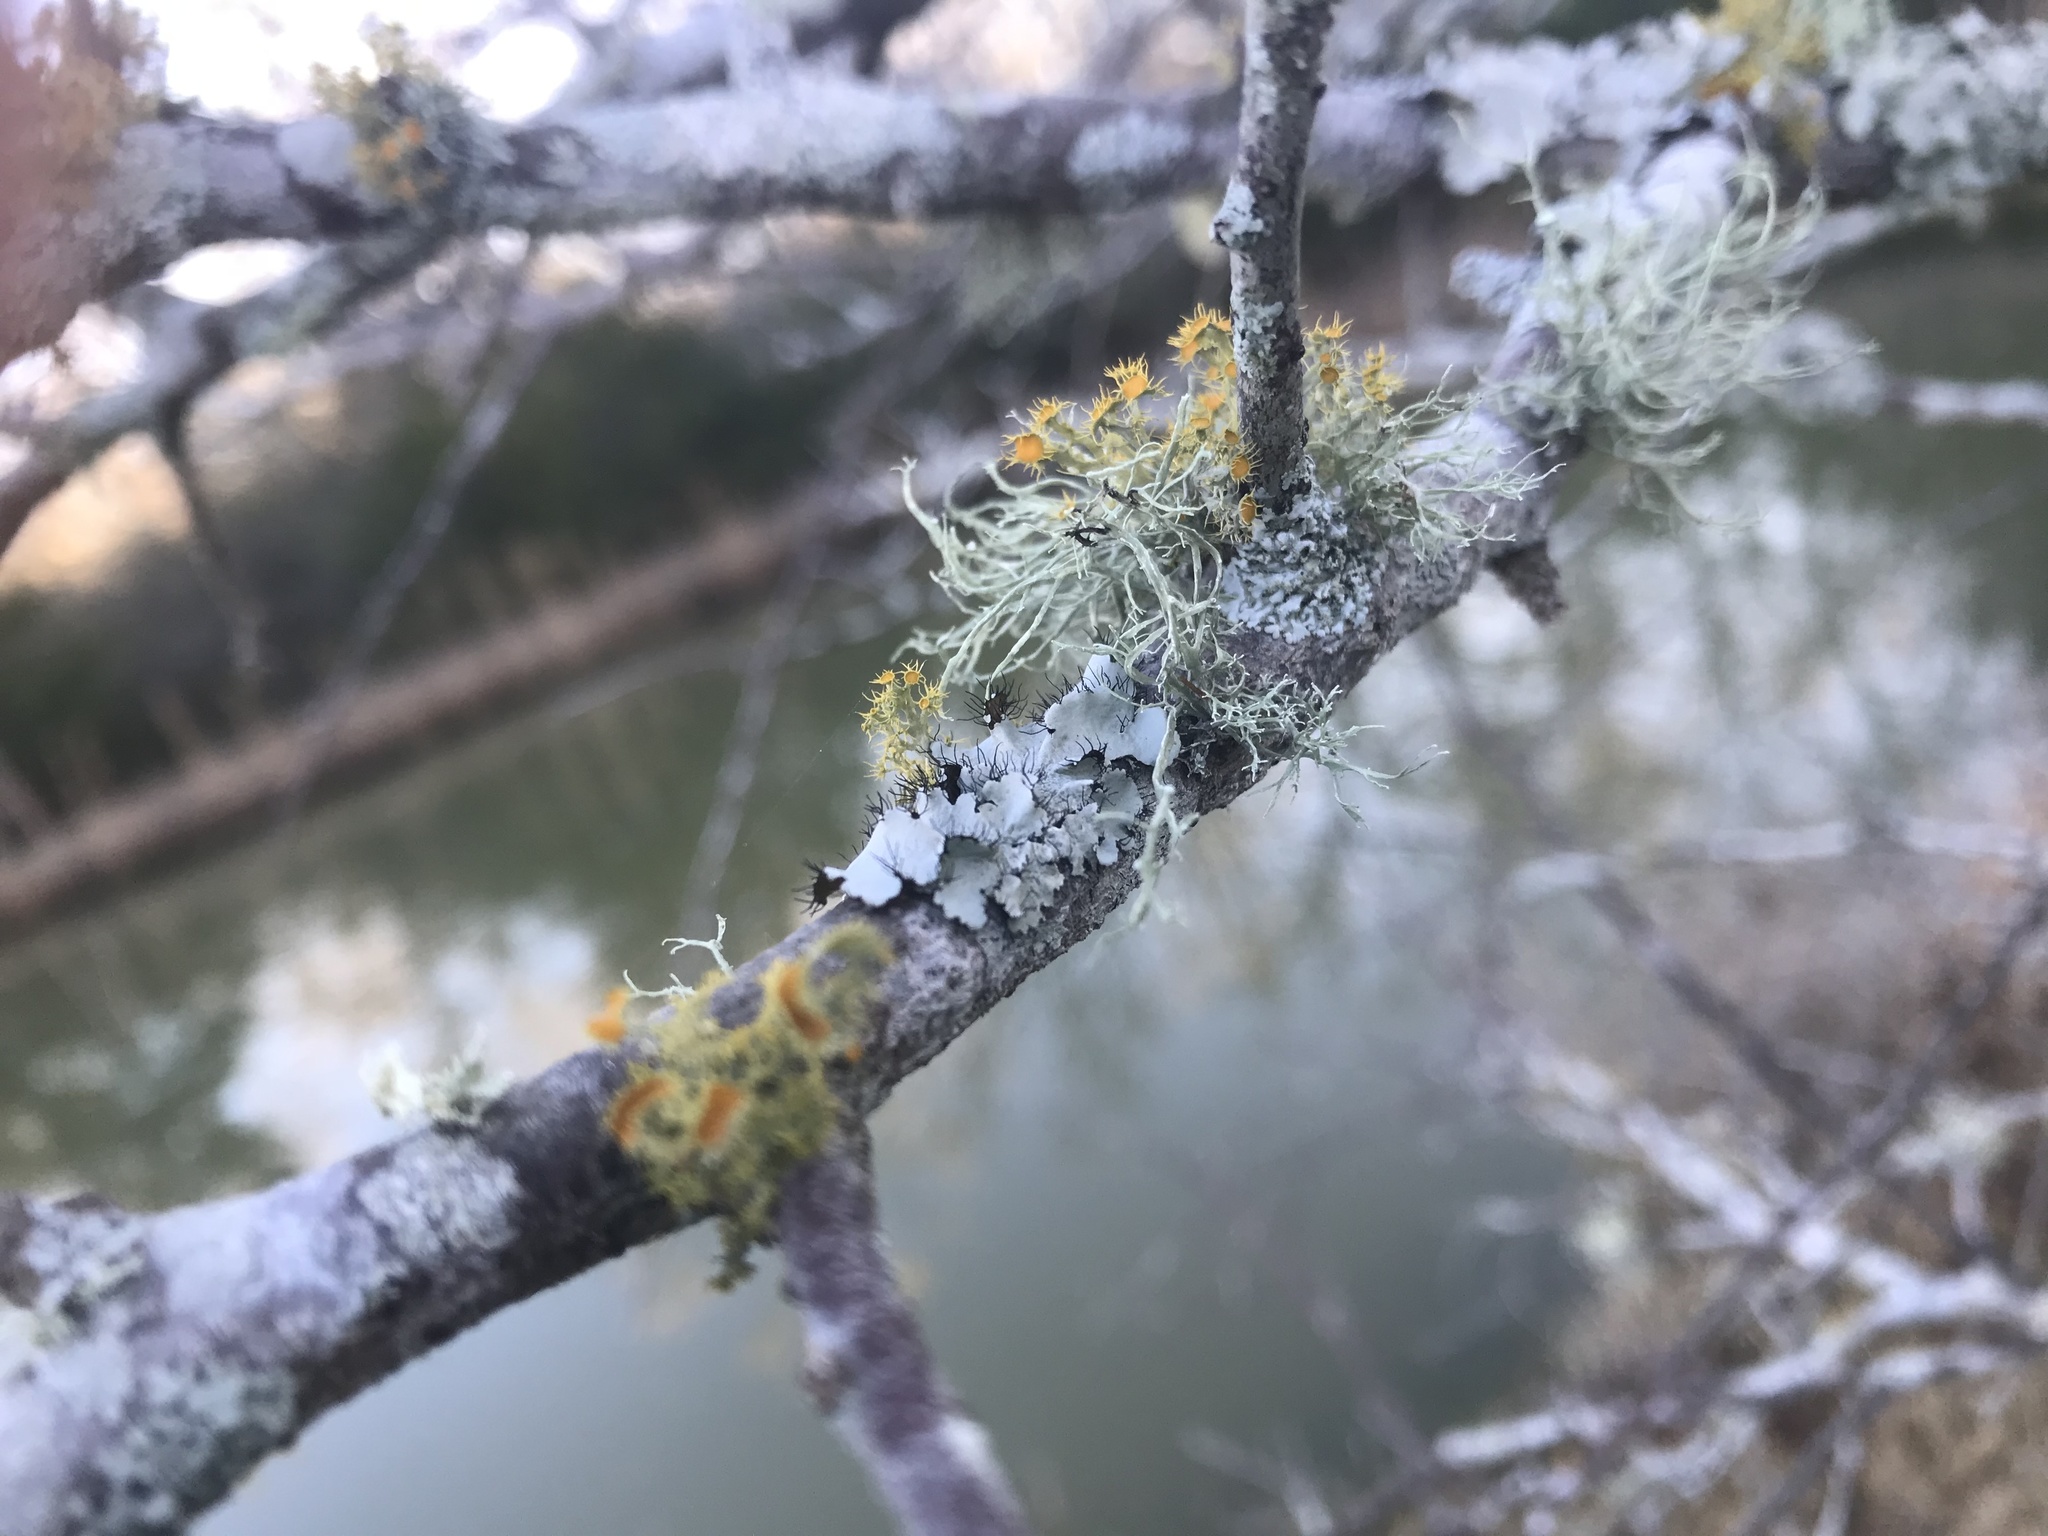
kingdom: Fungi
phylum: Ascomycota
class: Lecanoromycetes
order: Teloschistales
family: Teloschistaceae
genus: Niorma
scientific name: Niorma chrysophthalma
